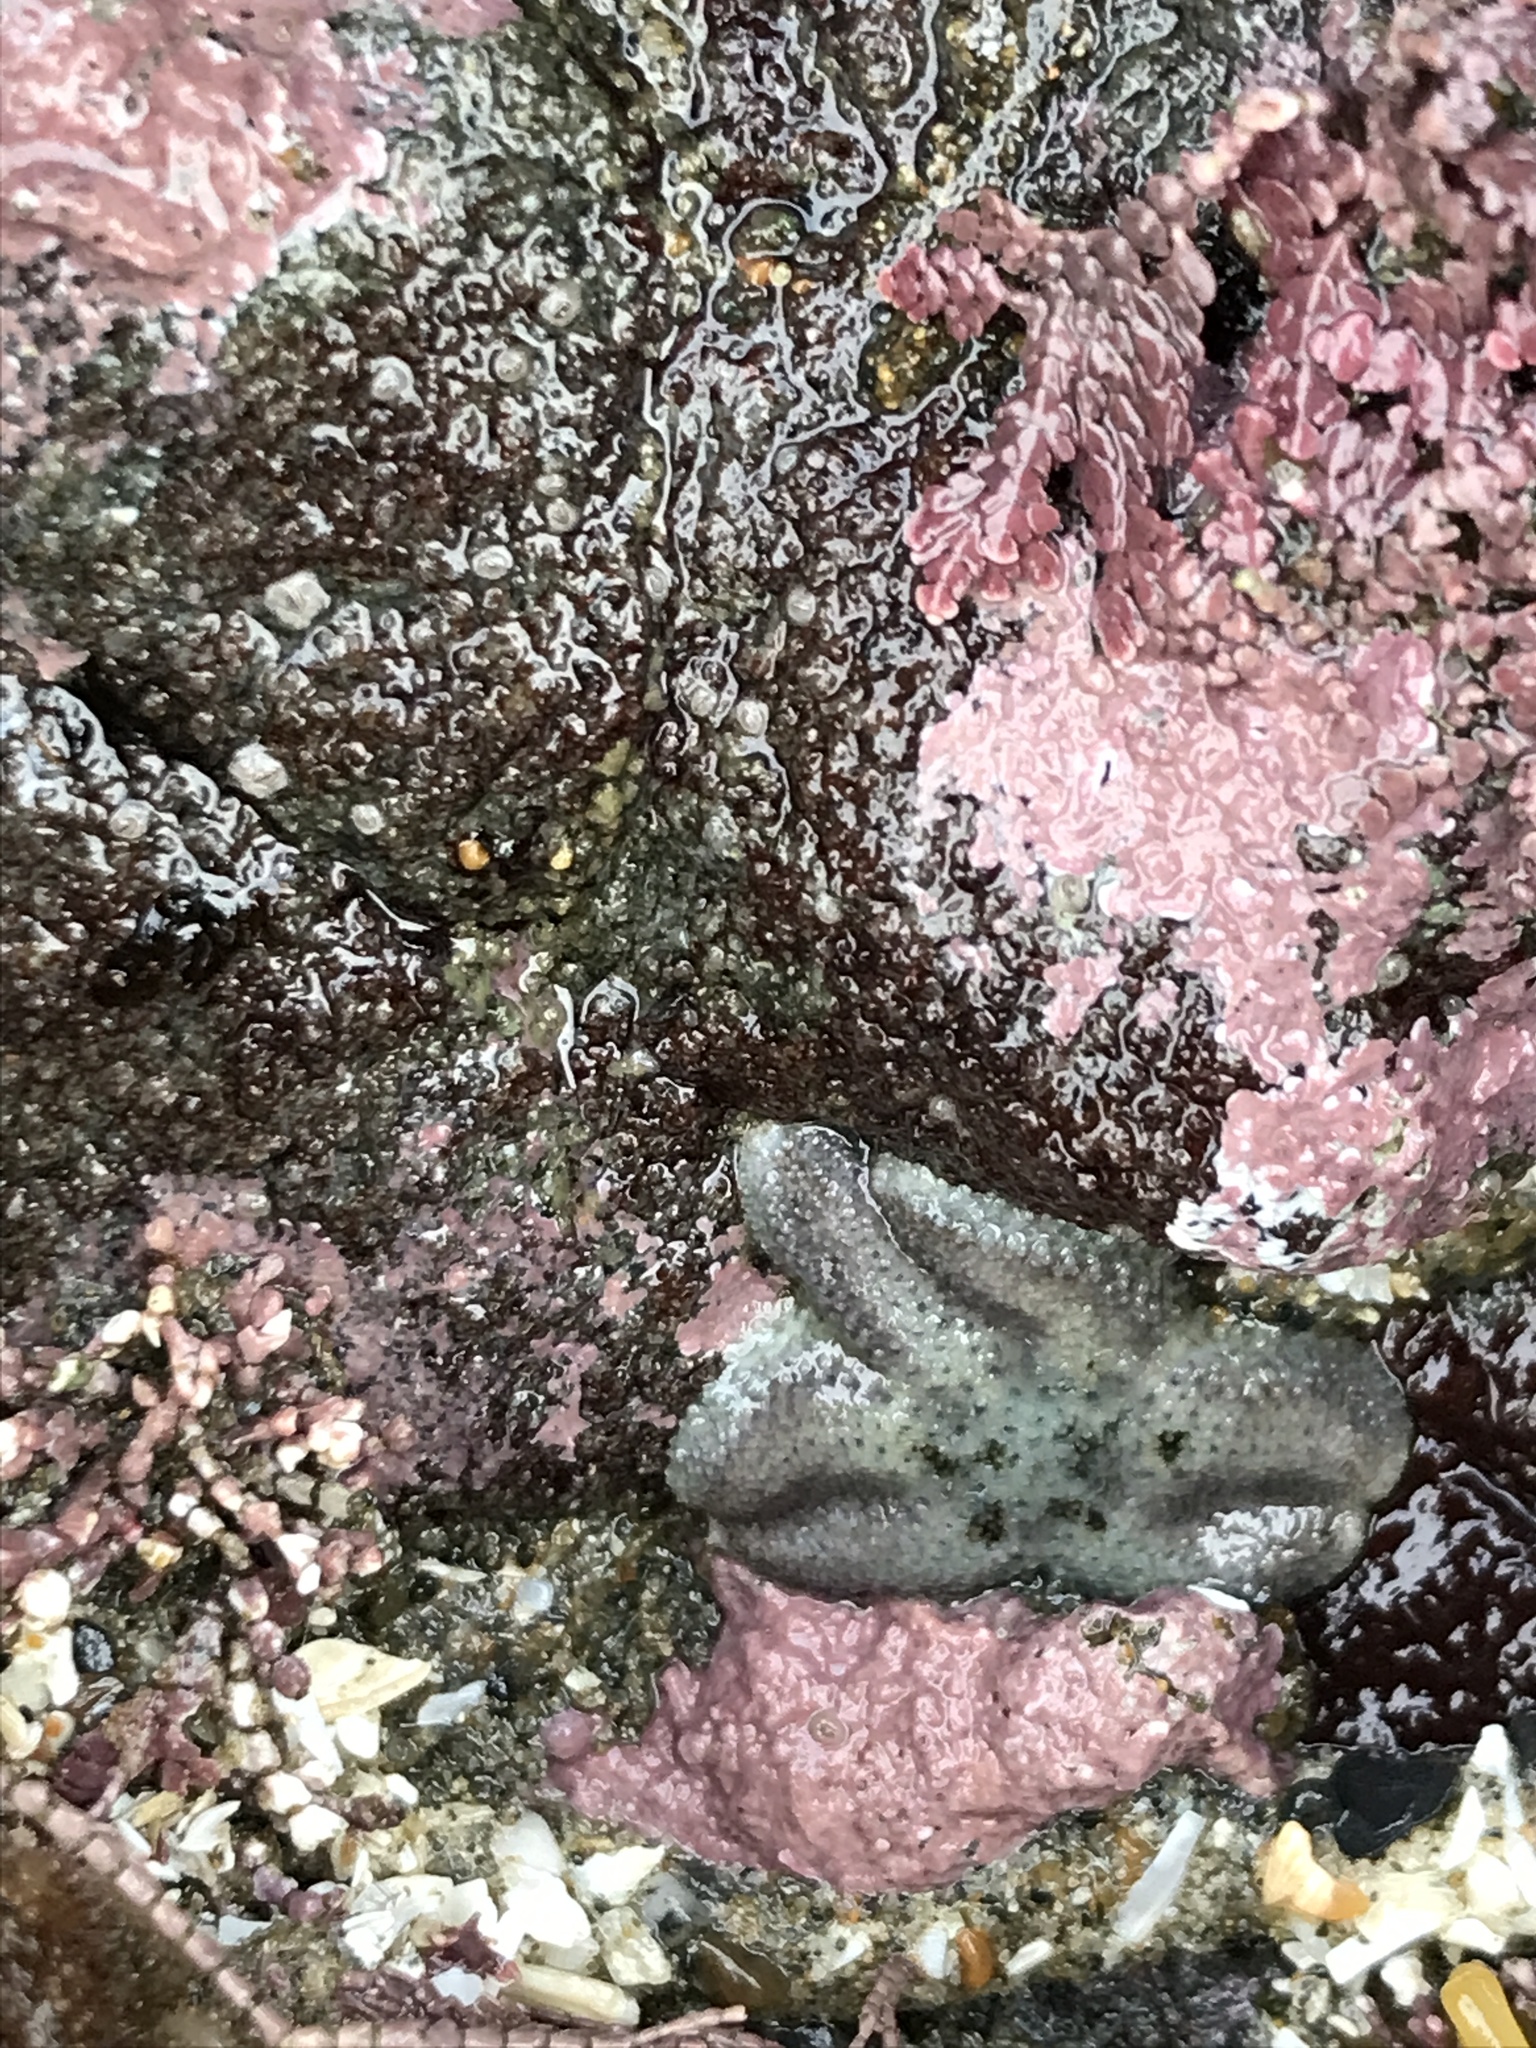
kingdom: Animalia
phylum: Echinodermata
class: Asteroidea
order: Forcipulatida
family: Asteriidae
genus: Leptasterias
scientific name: Leptasterias hexactis
